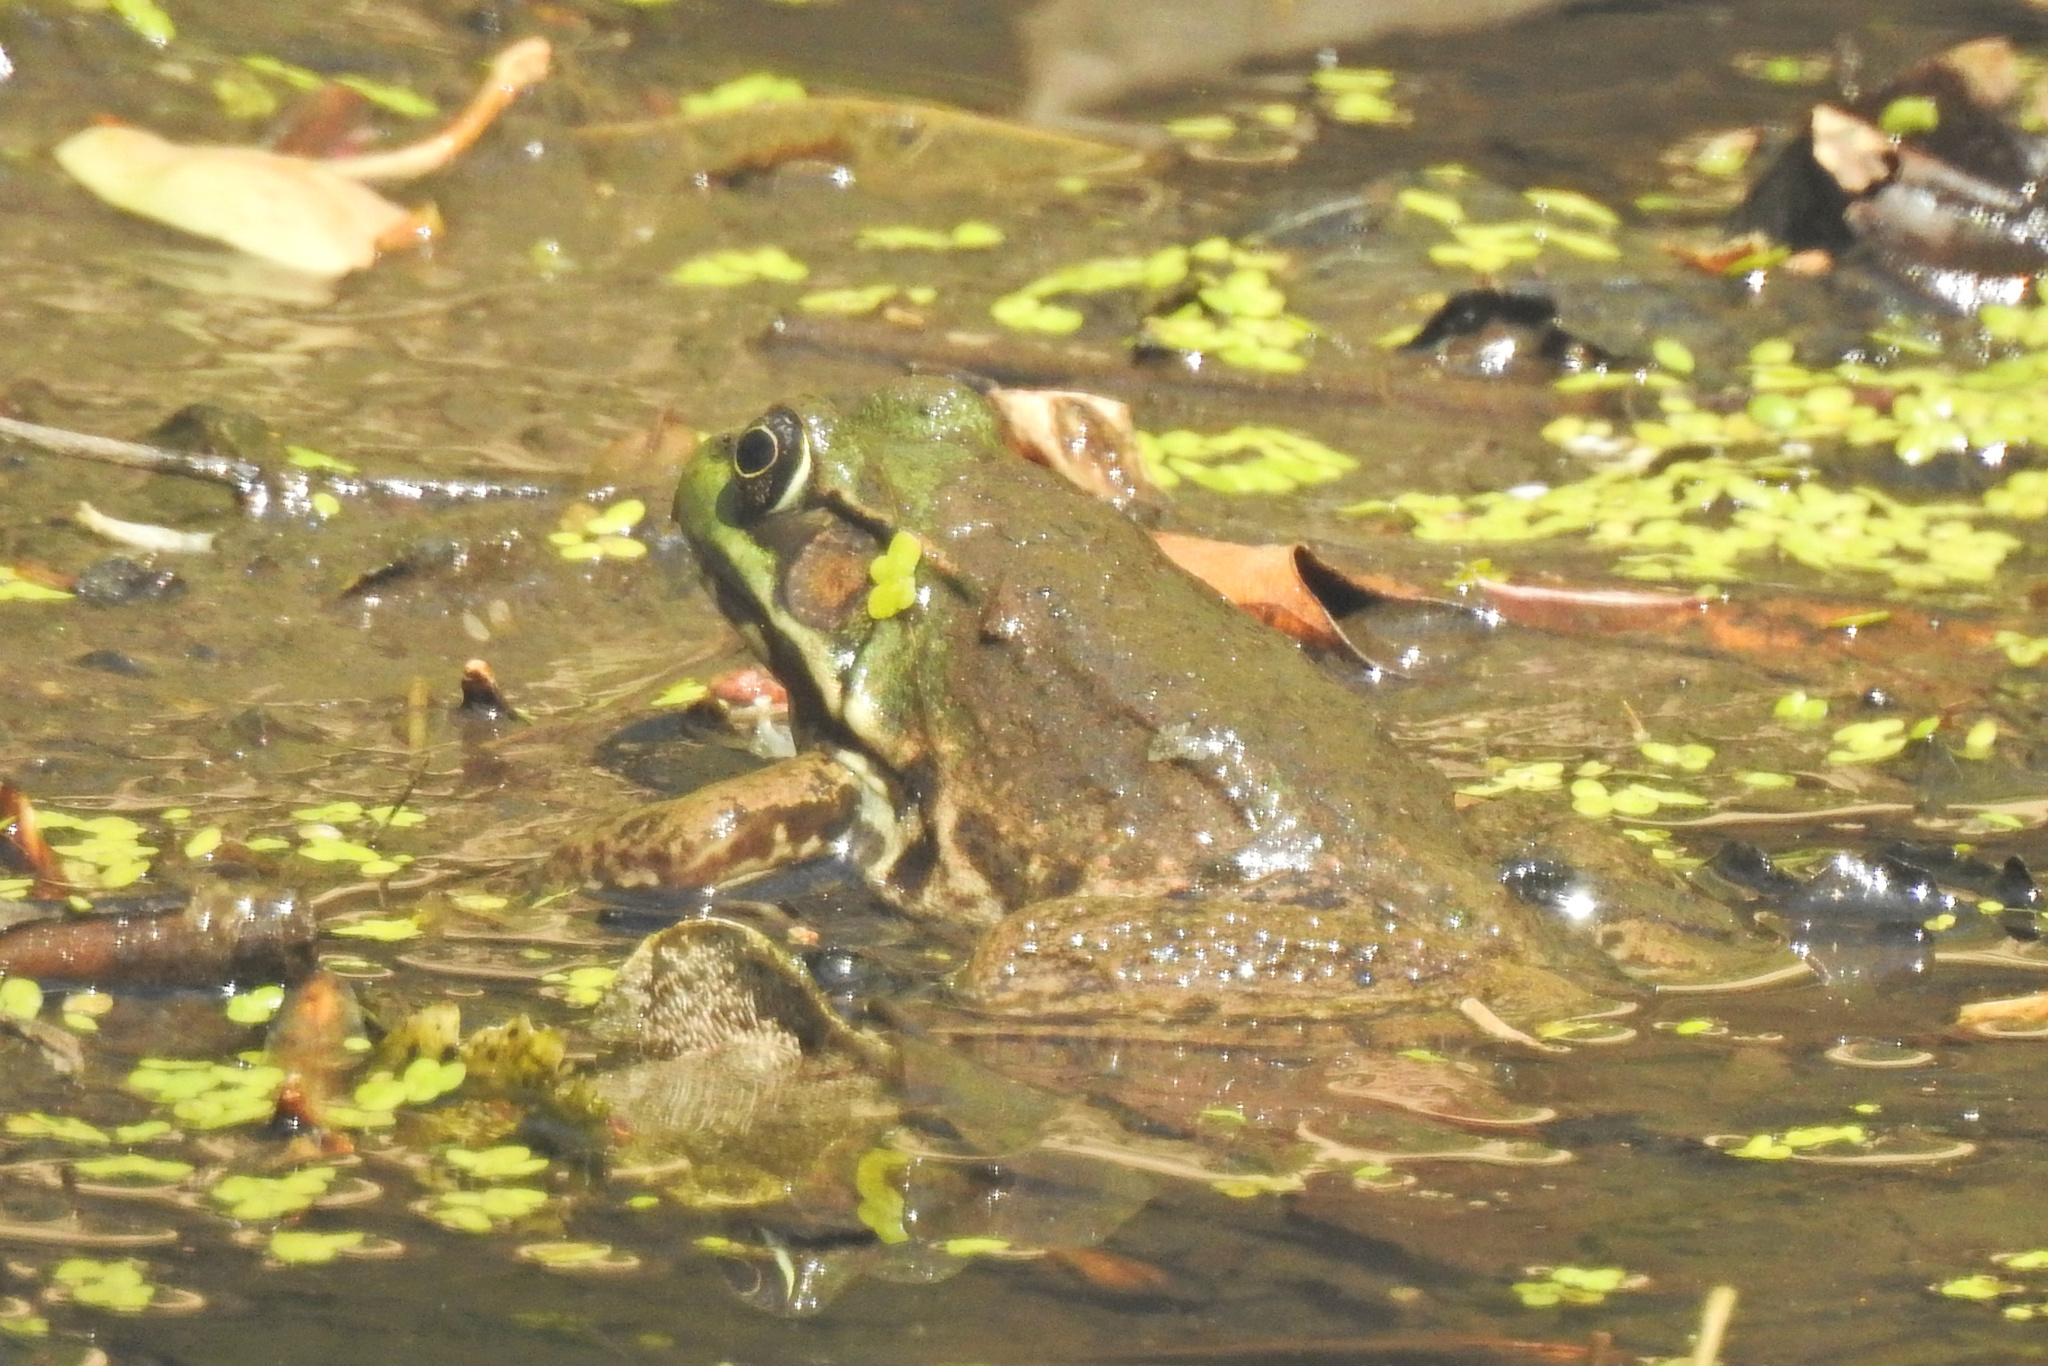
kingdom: Animalia
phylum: Chordata
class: Amphibia
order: Anura
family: Ranidae
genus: Lithobates
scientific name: Lithobates clamitans
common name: Green frog
